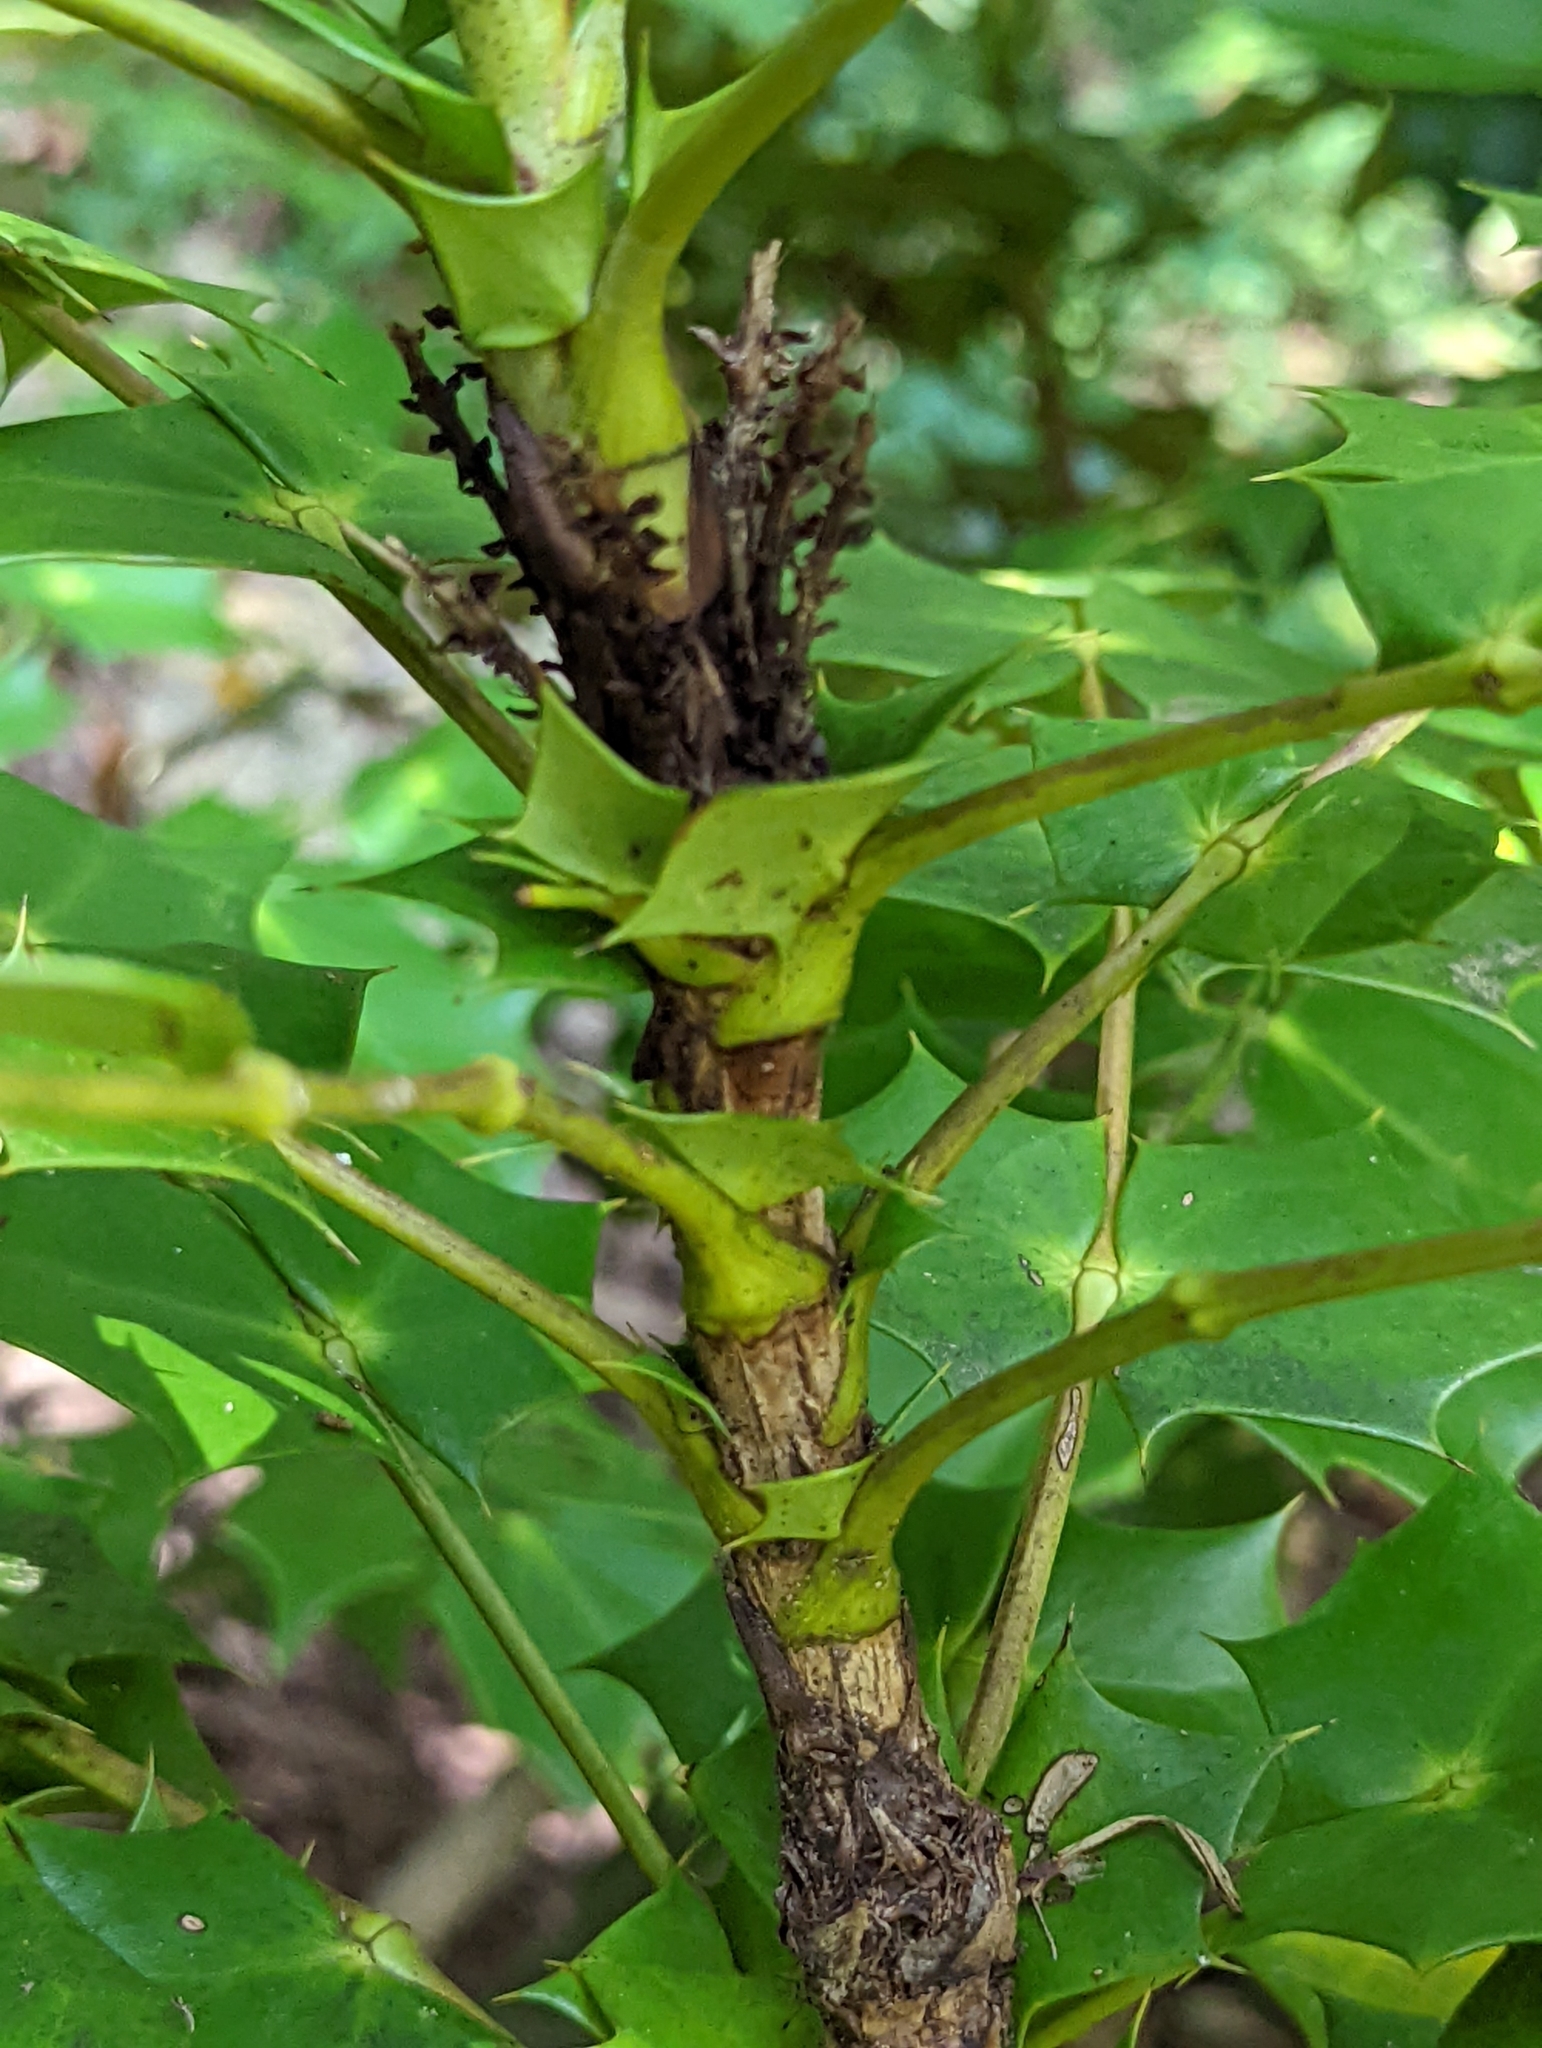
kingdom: Plantae
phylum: Tracheophyta
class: Magnoliopsida
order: Ranunculales
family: Berberidaceae
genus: Mahonia
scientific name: Mahonia bealei
